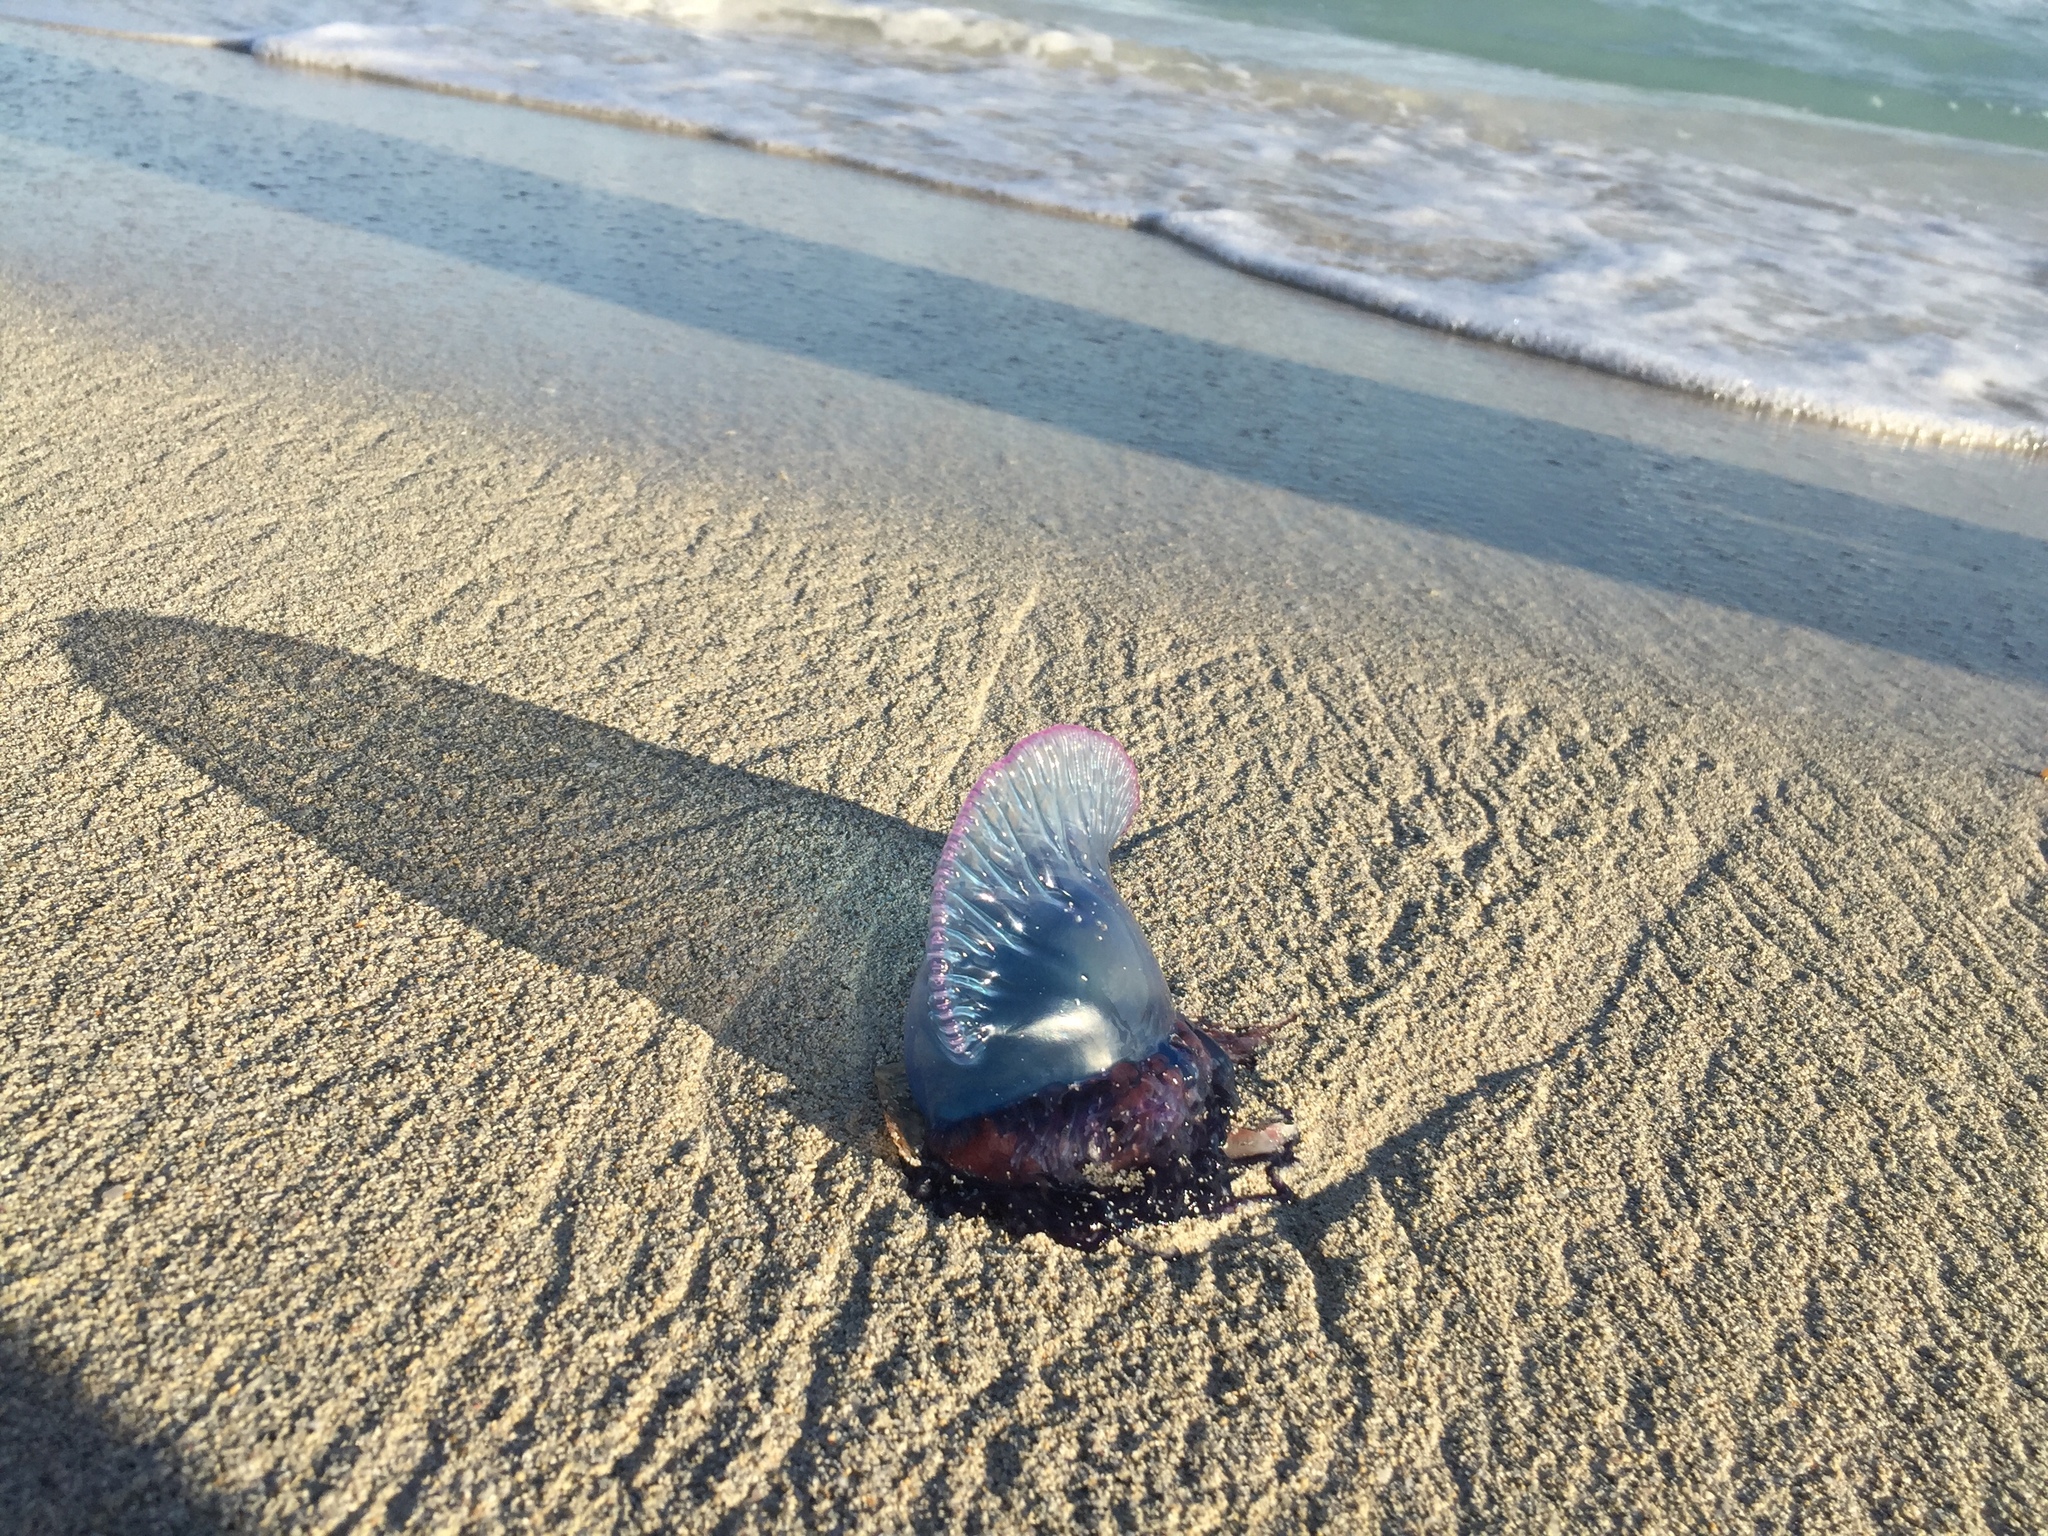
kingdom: Animalia
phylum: Cnidaria
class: Hydrozoa
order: Siphonophorae
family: Physaliidae
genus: Physalia
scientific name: Physalia physalis
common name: Portuguese man-of-war
